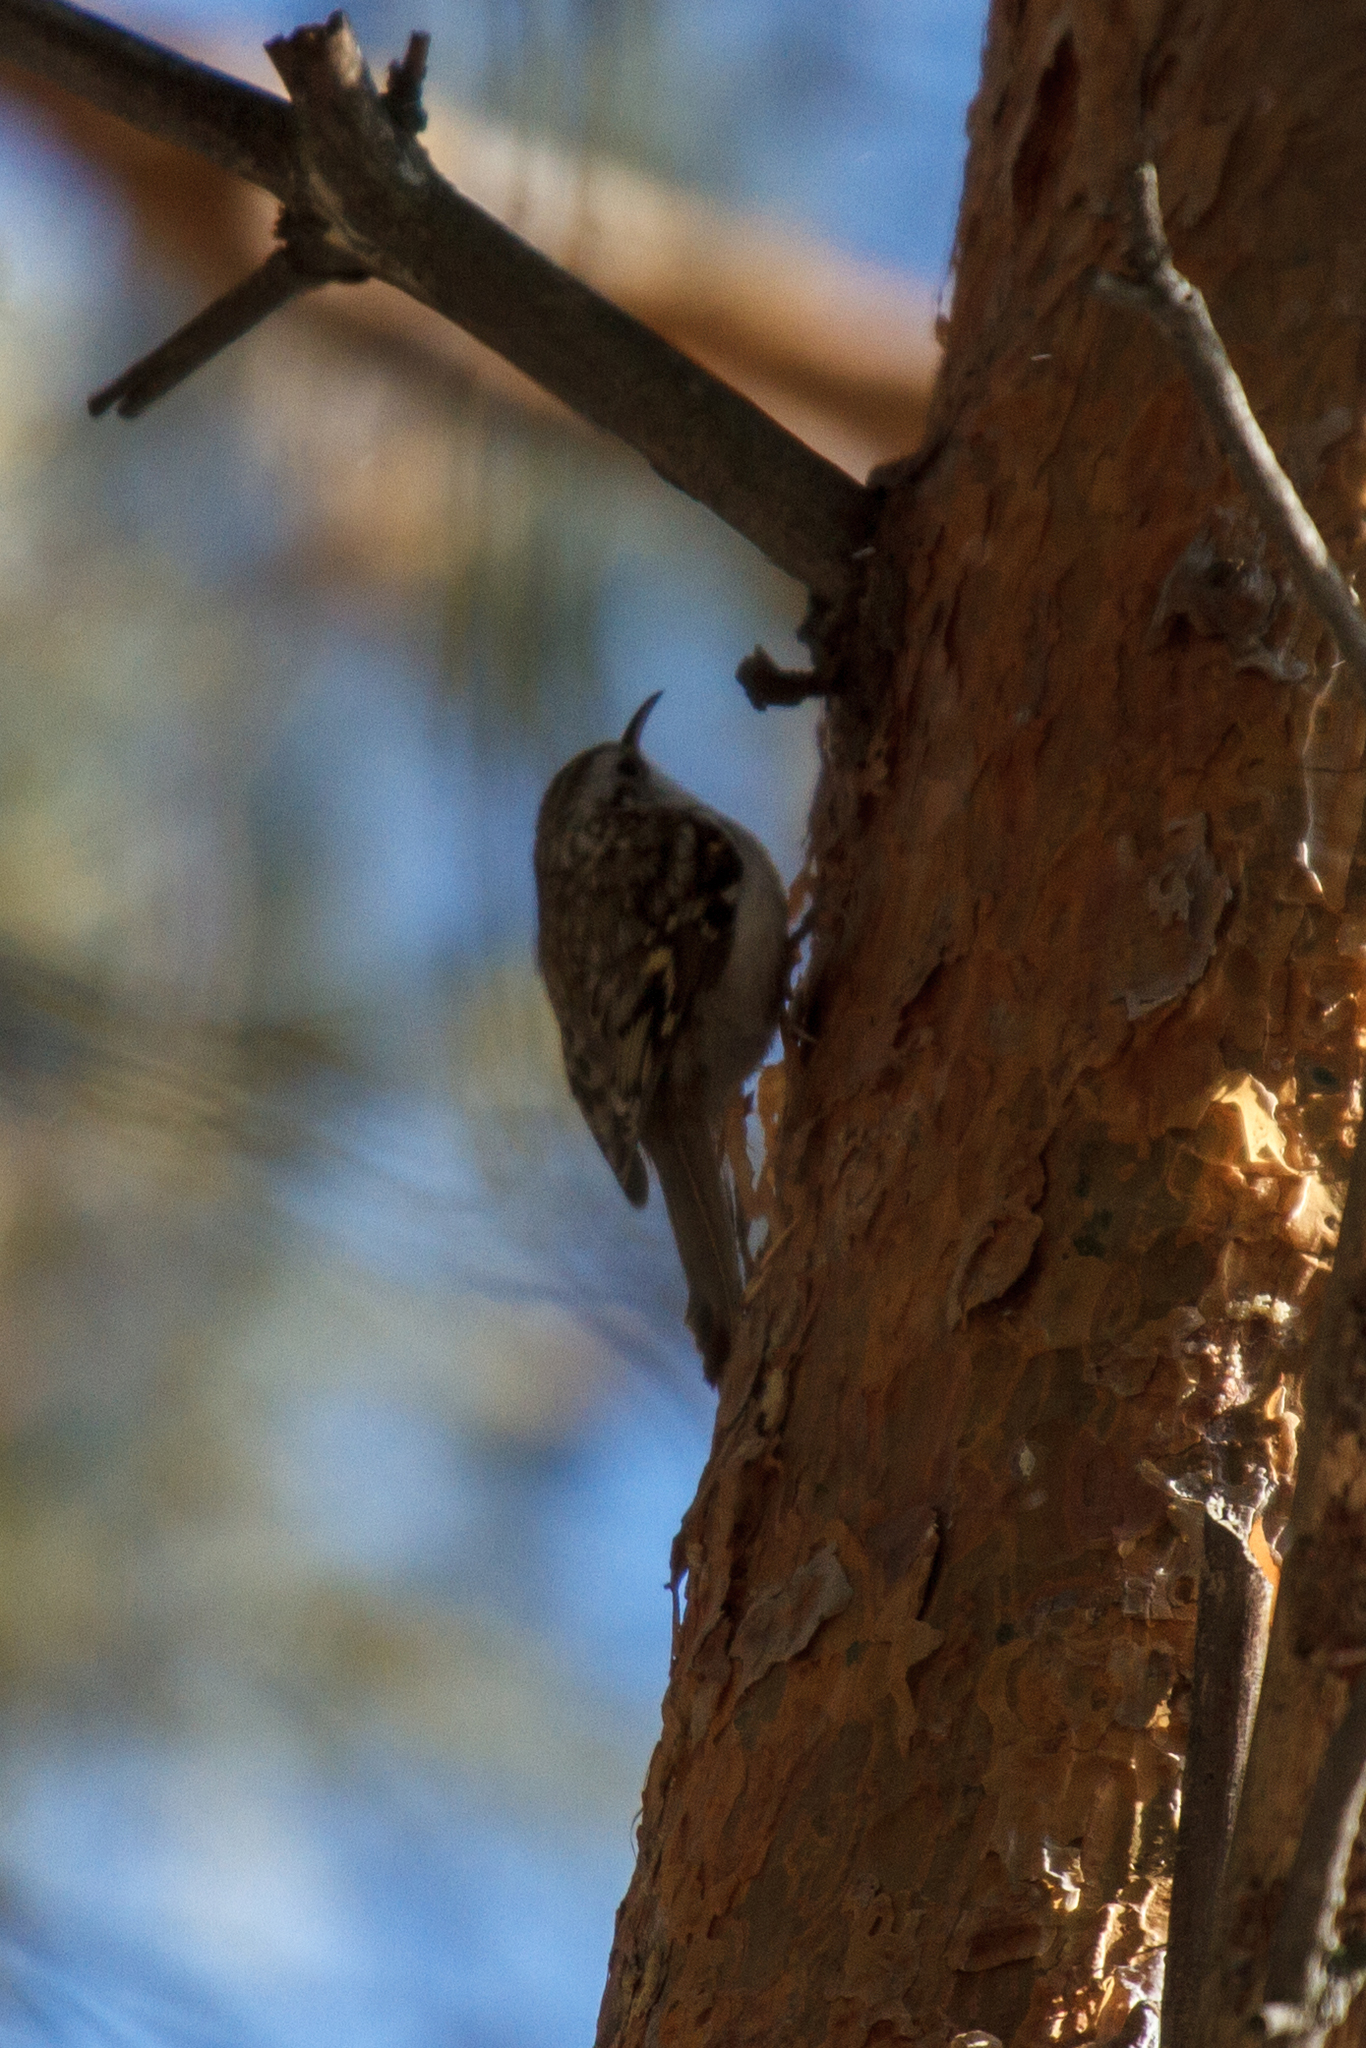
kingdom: Animalia
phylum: Chordata
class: Aves
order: Passeriformes
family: Certhiidae
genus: Certhia
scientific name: Certhia familiaris
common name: Eurasian treecreeper
